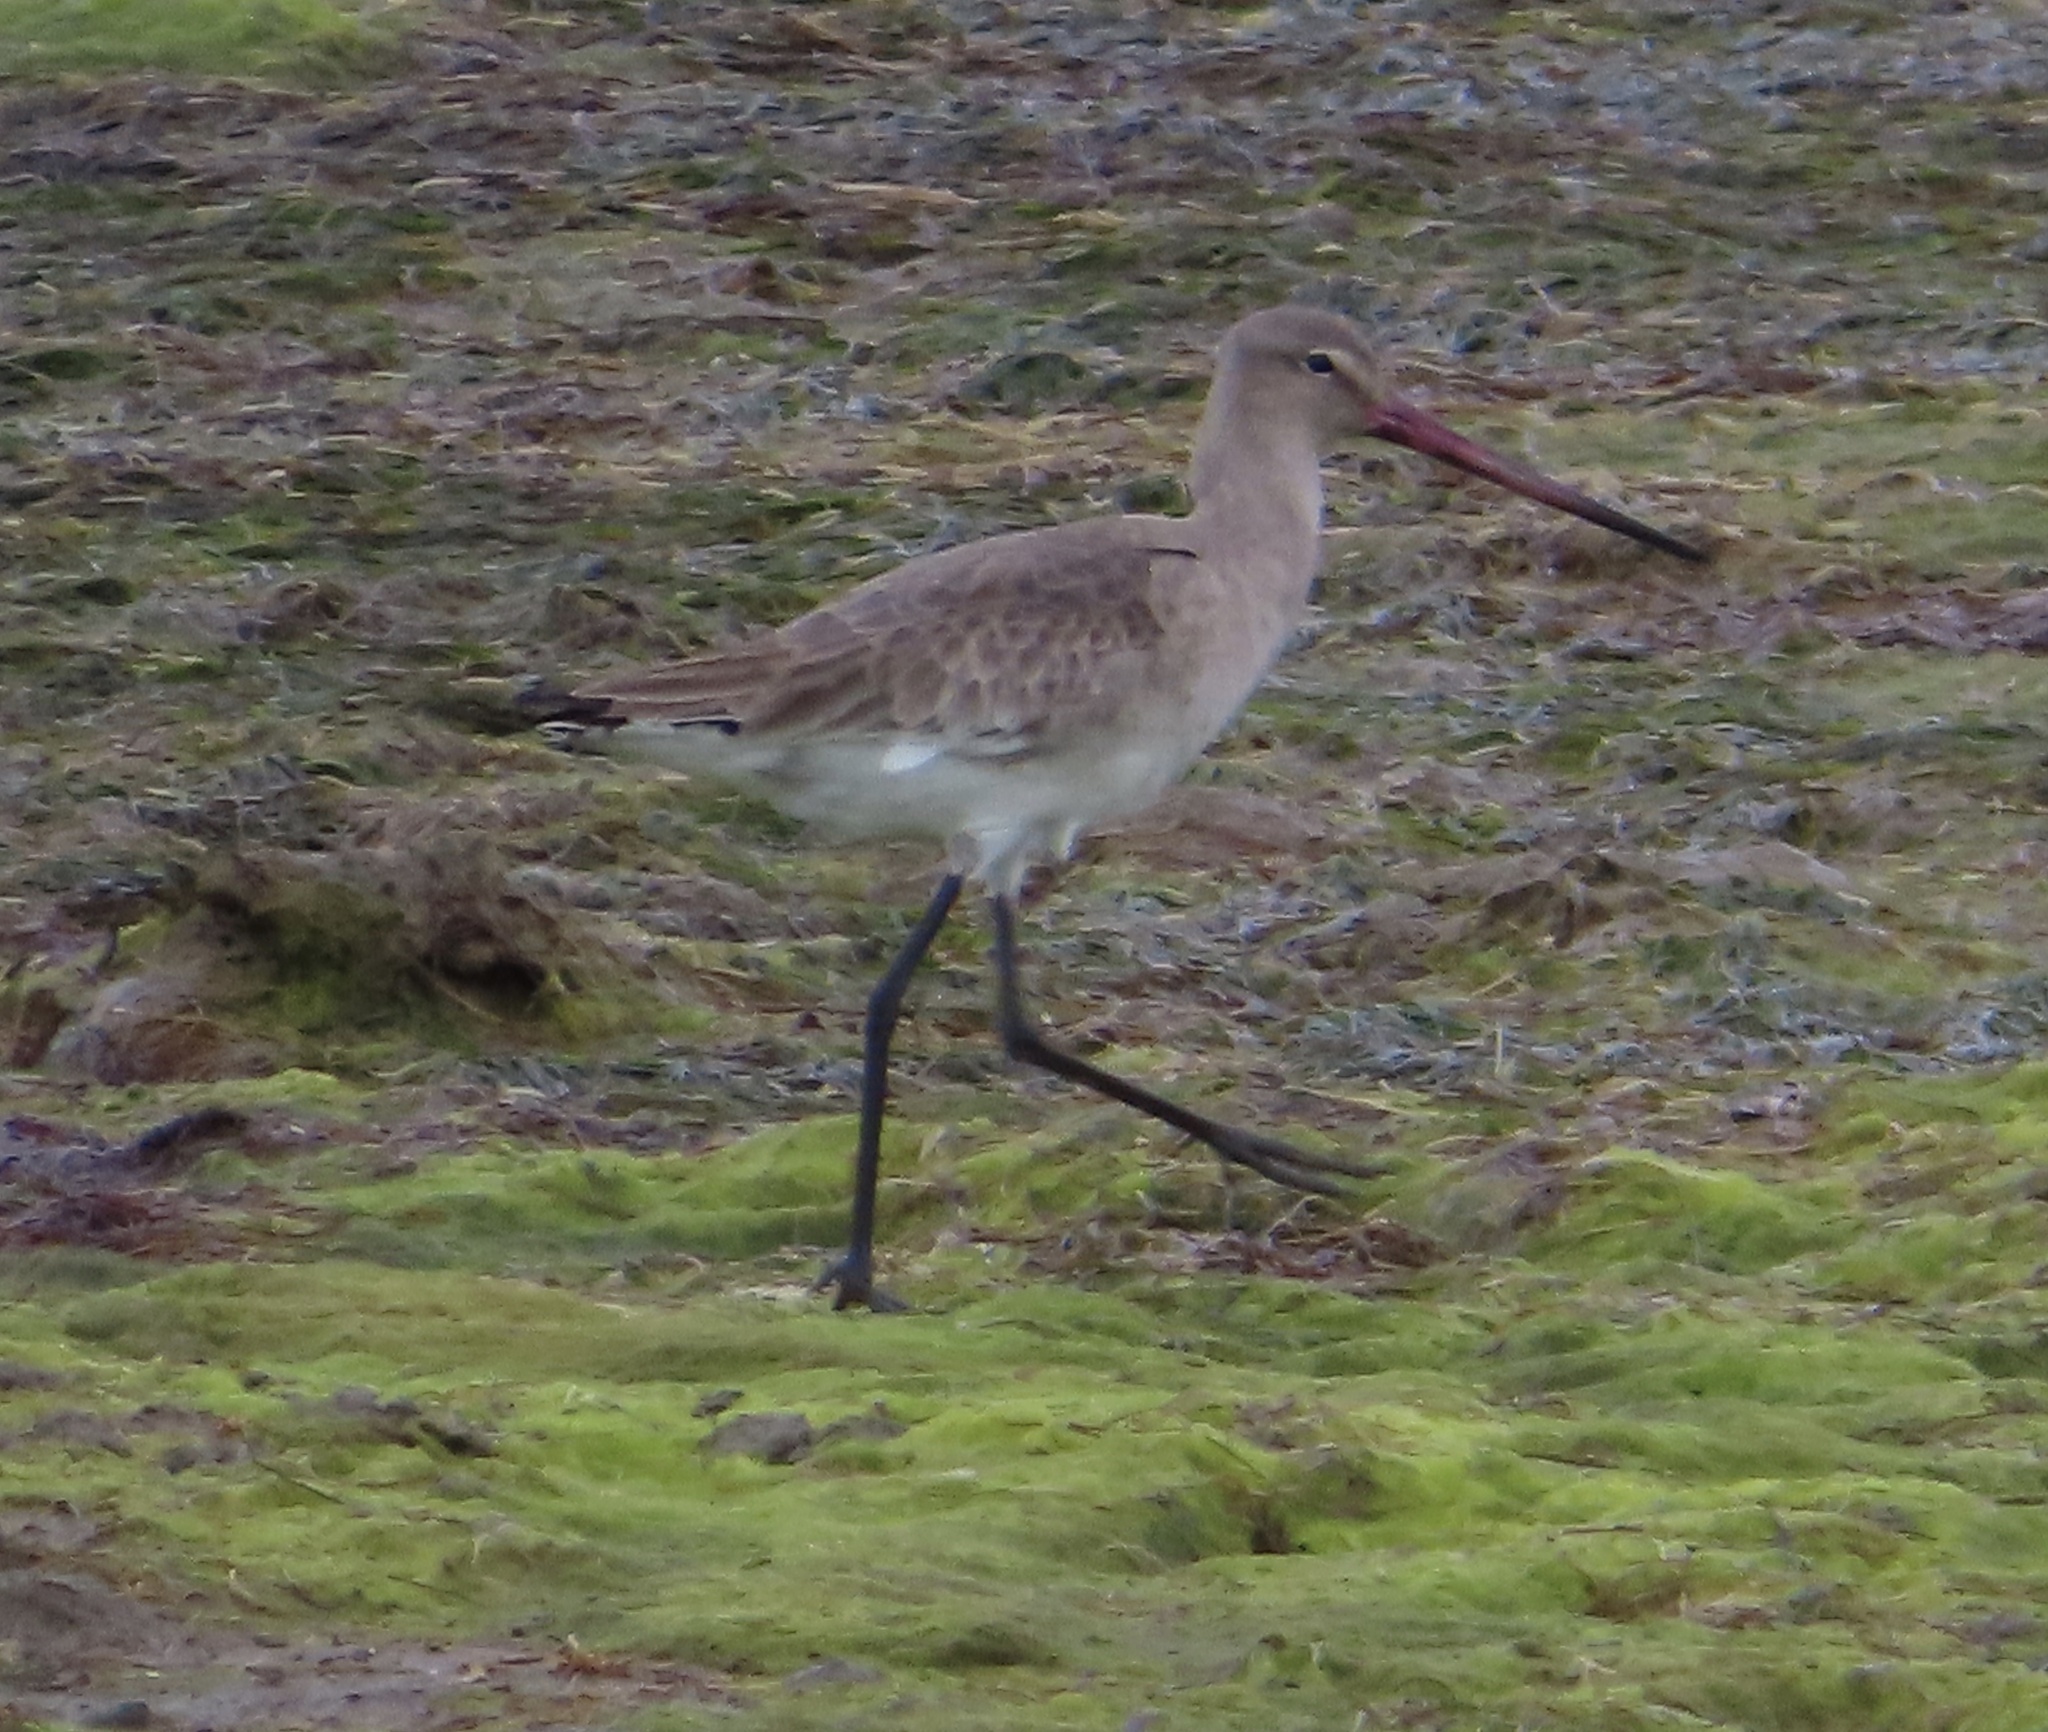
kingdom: Animalia
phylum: Chordata
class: Aves
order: Charadriiformes
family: Scolopacidae
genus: Limosa
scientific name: Limosa limosa
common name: Black-tailed godwit
